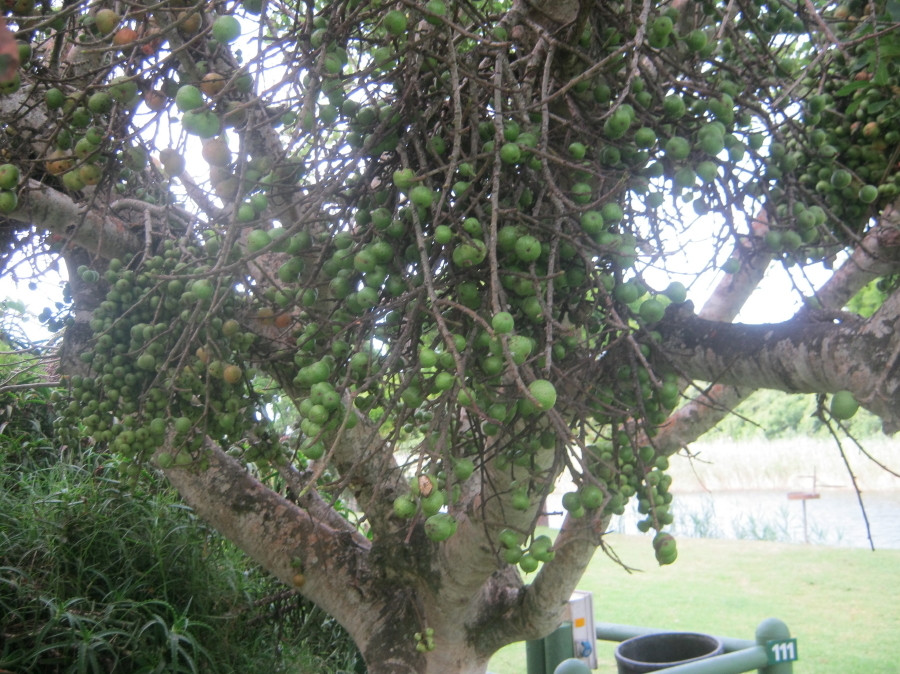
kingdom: Plantae
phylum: Tracheophyta
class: Magnoliopsida
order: Rosales
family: Moraceae
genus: Ficus
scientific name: Ficus sur
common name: Cape fig
